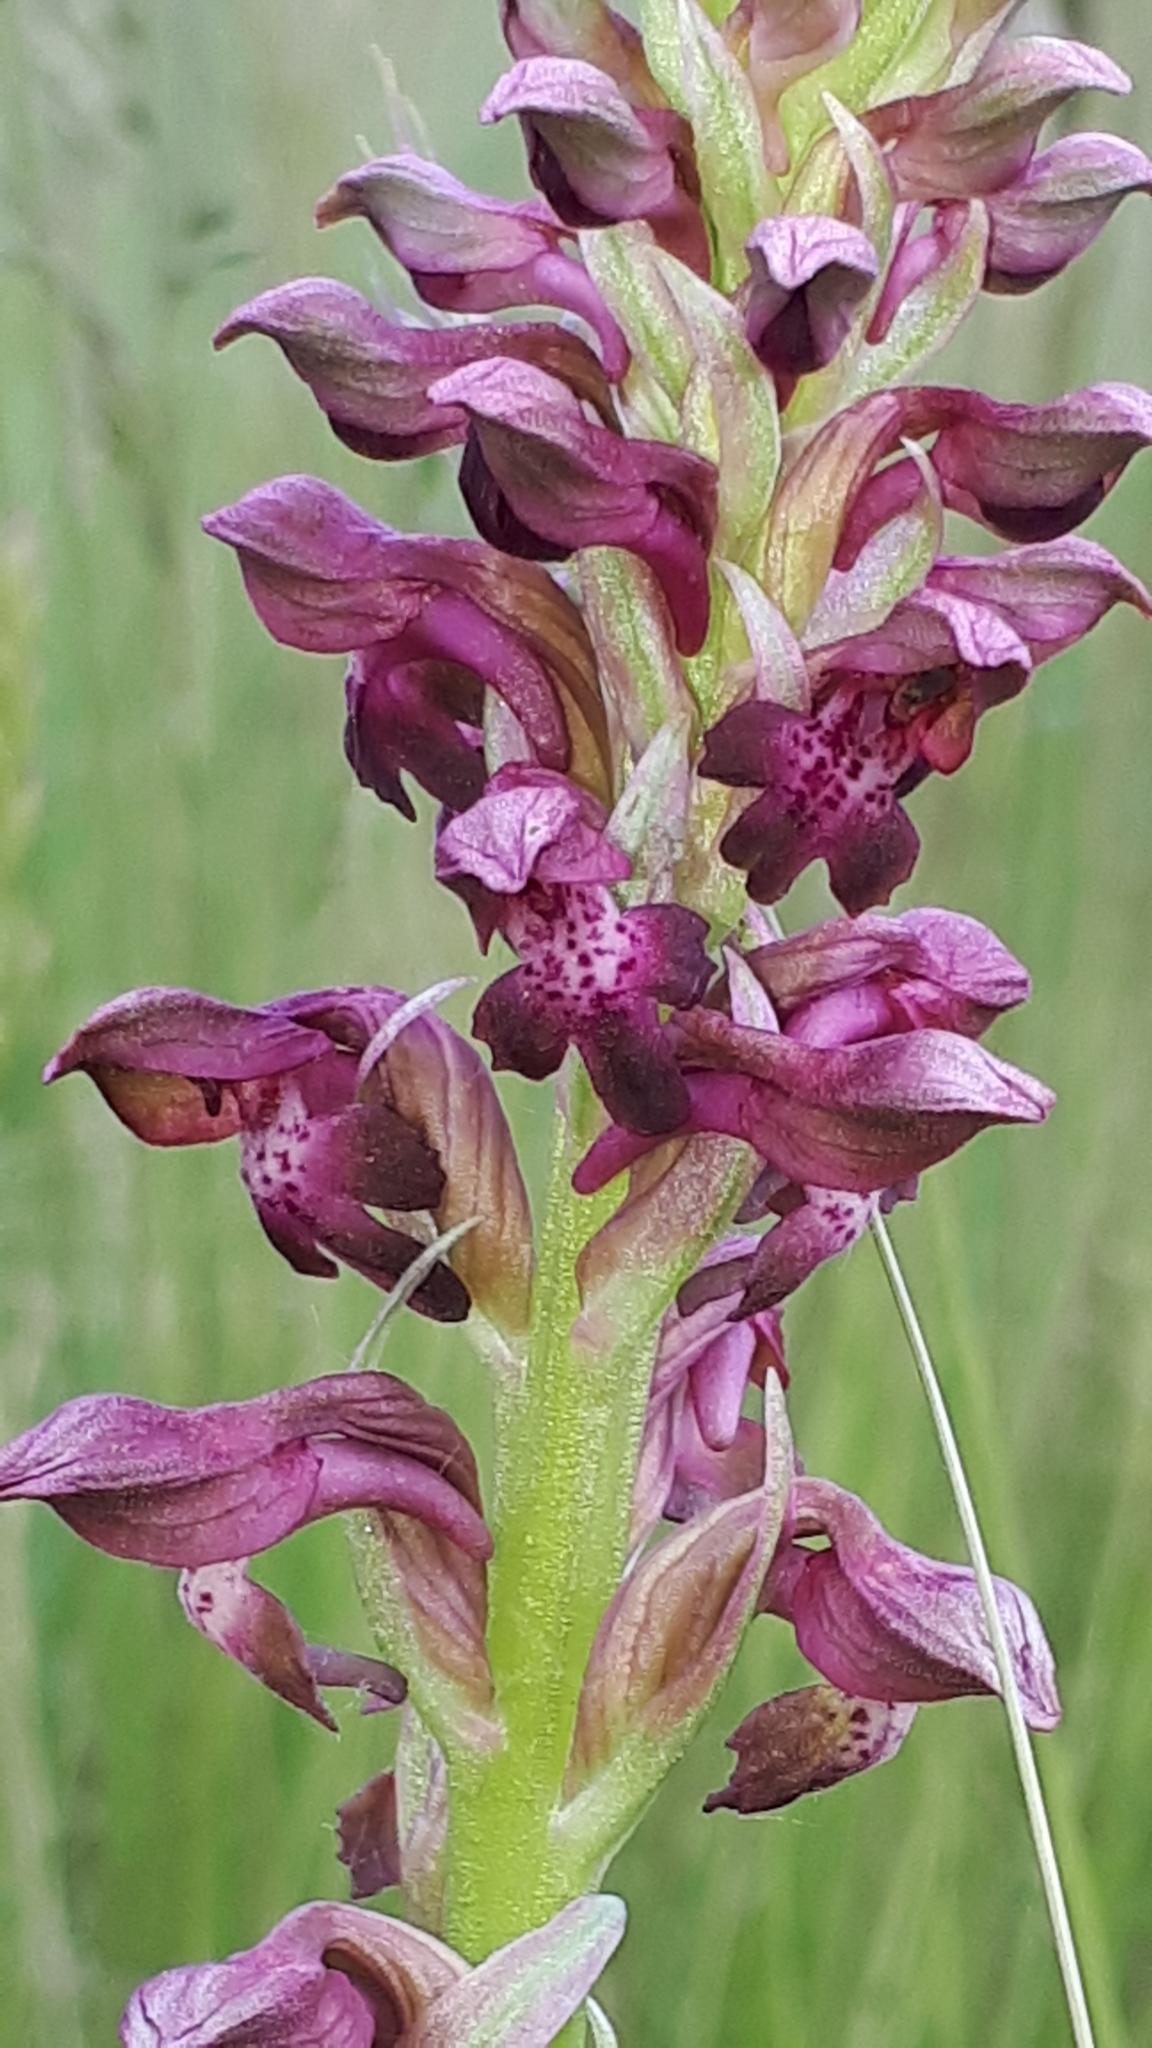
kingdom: Plantae
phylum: Tracheophyta
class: Liliopsida
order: Asparagales
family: Orchidaceae
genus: Anacamptis
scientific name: Anacamptis coriophora
